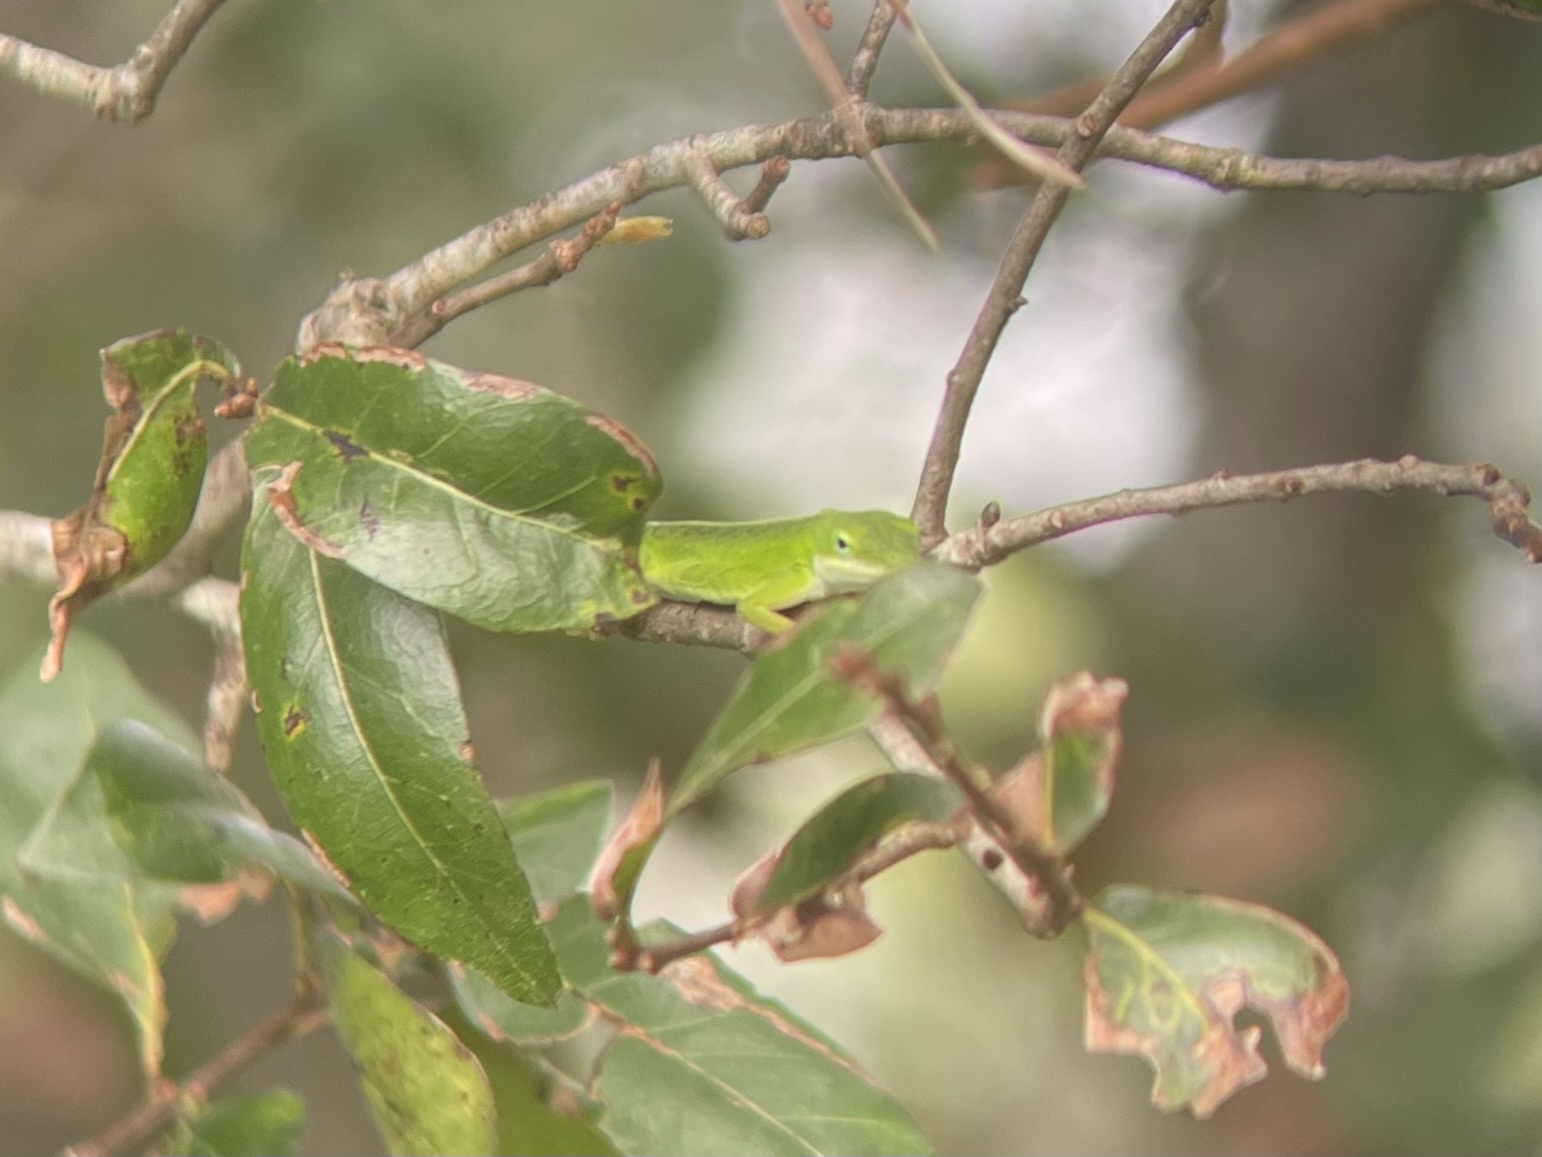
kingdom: Animalia
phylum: Chordata
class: Squamata
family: Dactyloidae
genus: Anolis
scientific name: Anolis carolinensis
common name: Green anole
